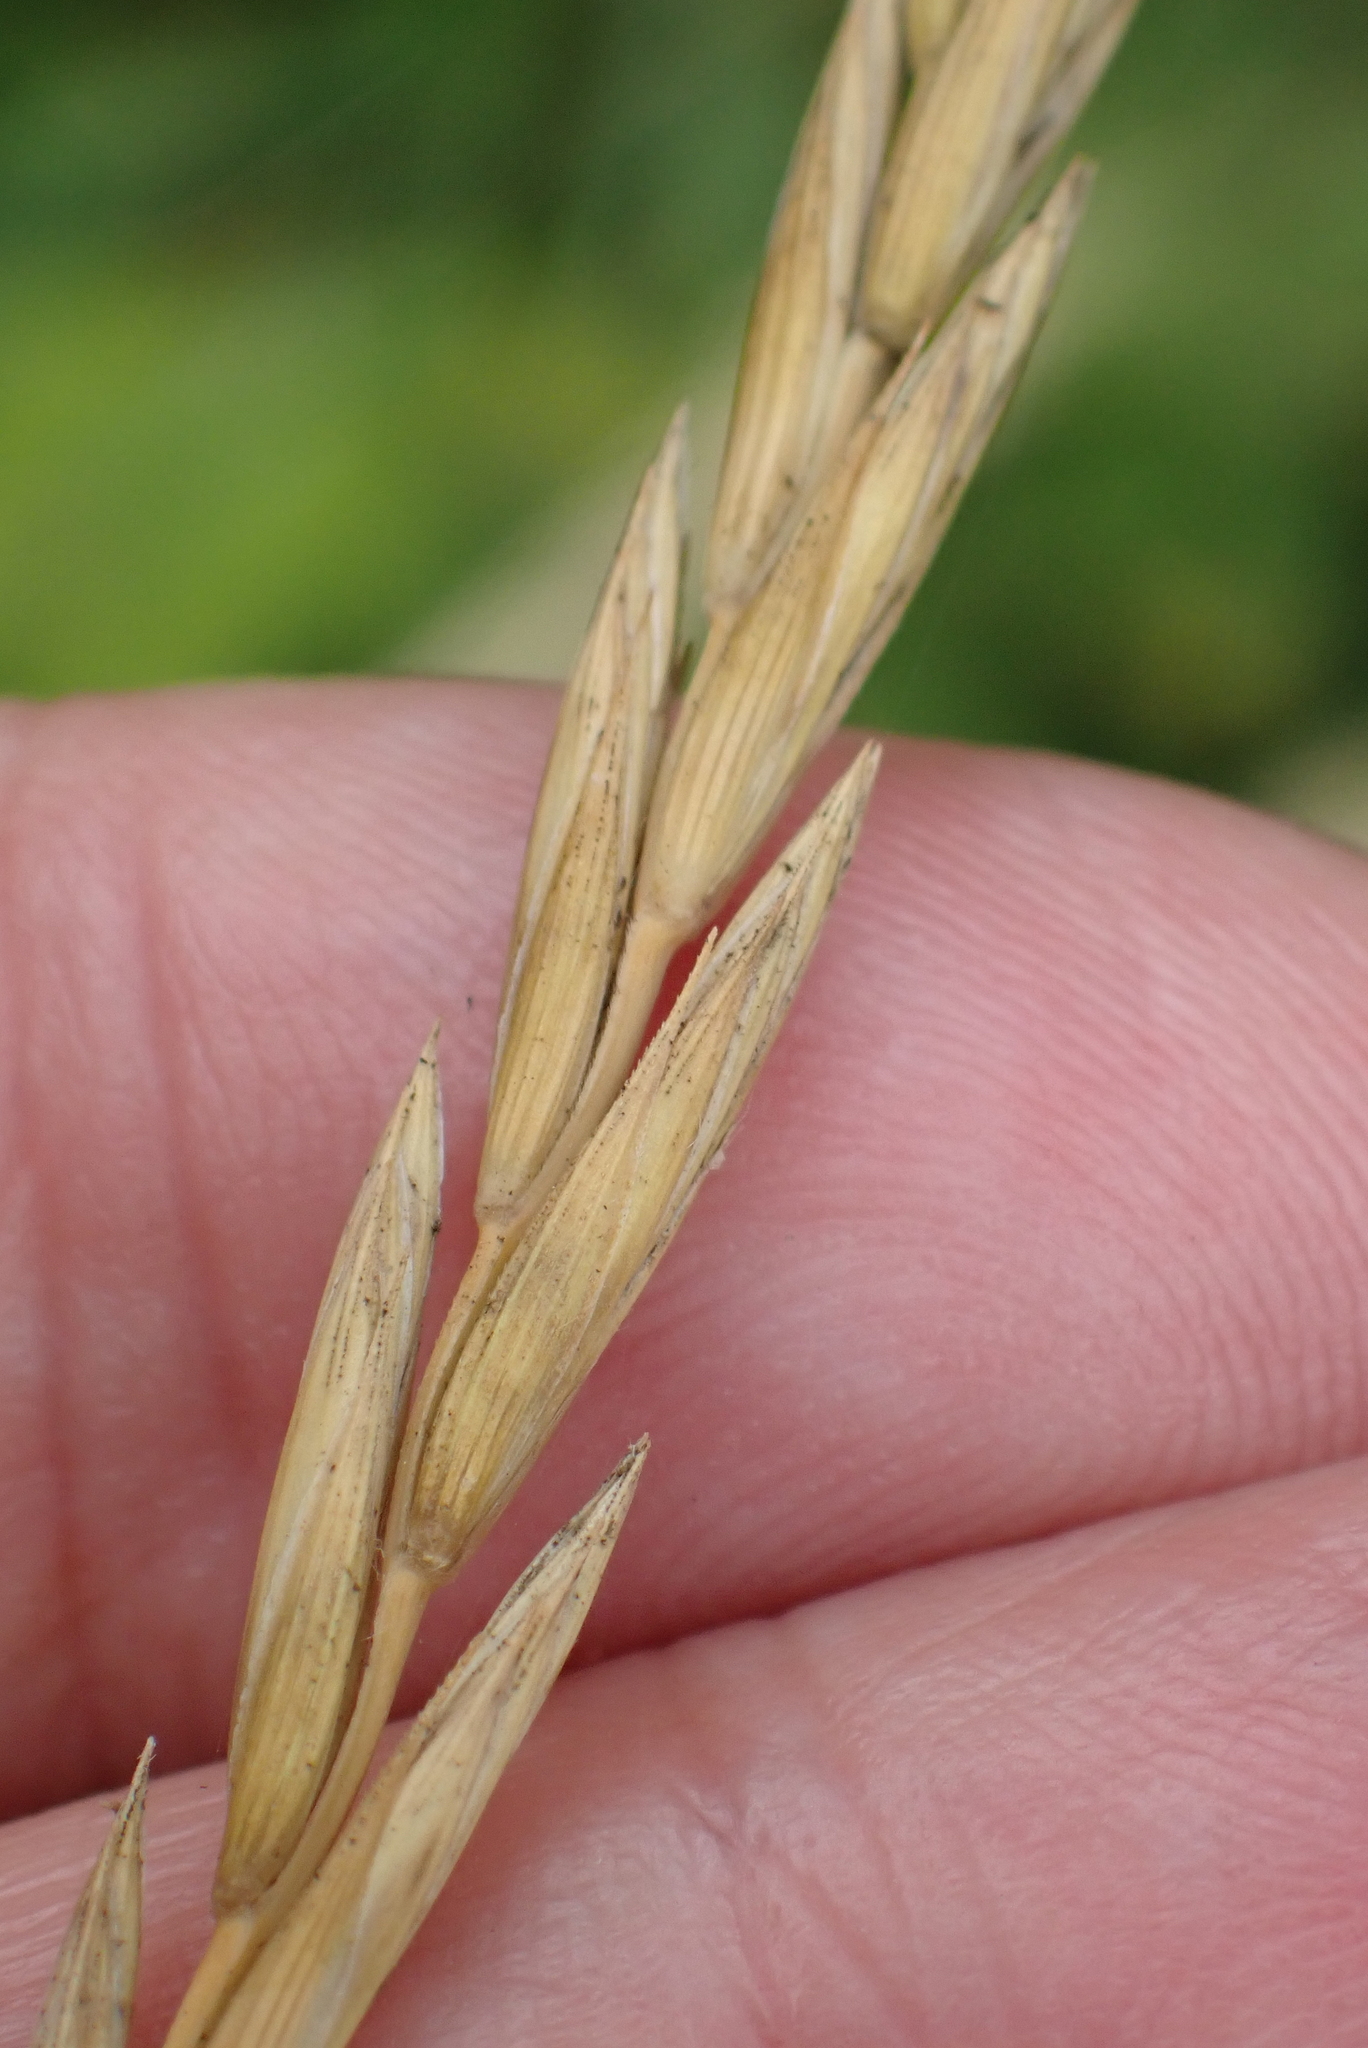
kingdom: Plantae
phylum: Tracheophyta
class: Liliopsida
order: Poales
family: Poaceae
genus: Elymus
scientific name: Elymus repens
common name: Quackgrass
